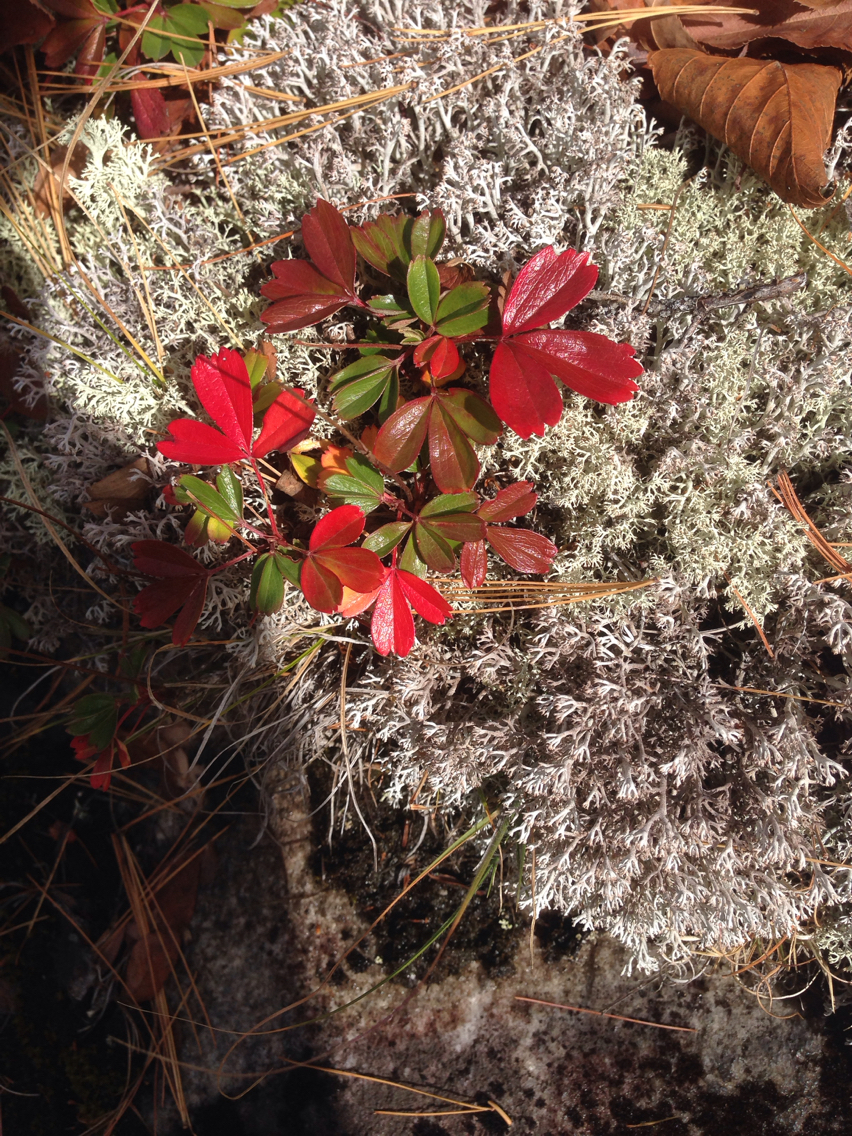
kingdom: Plantae
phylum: Tracheophyta
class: Magnoliopsida
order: Rosales
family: Rosaceae
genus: Sibbaldia
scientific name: Sibbaldia tridentata
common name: Three-toothed cinquefoil
